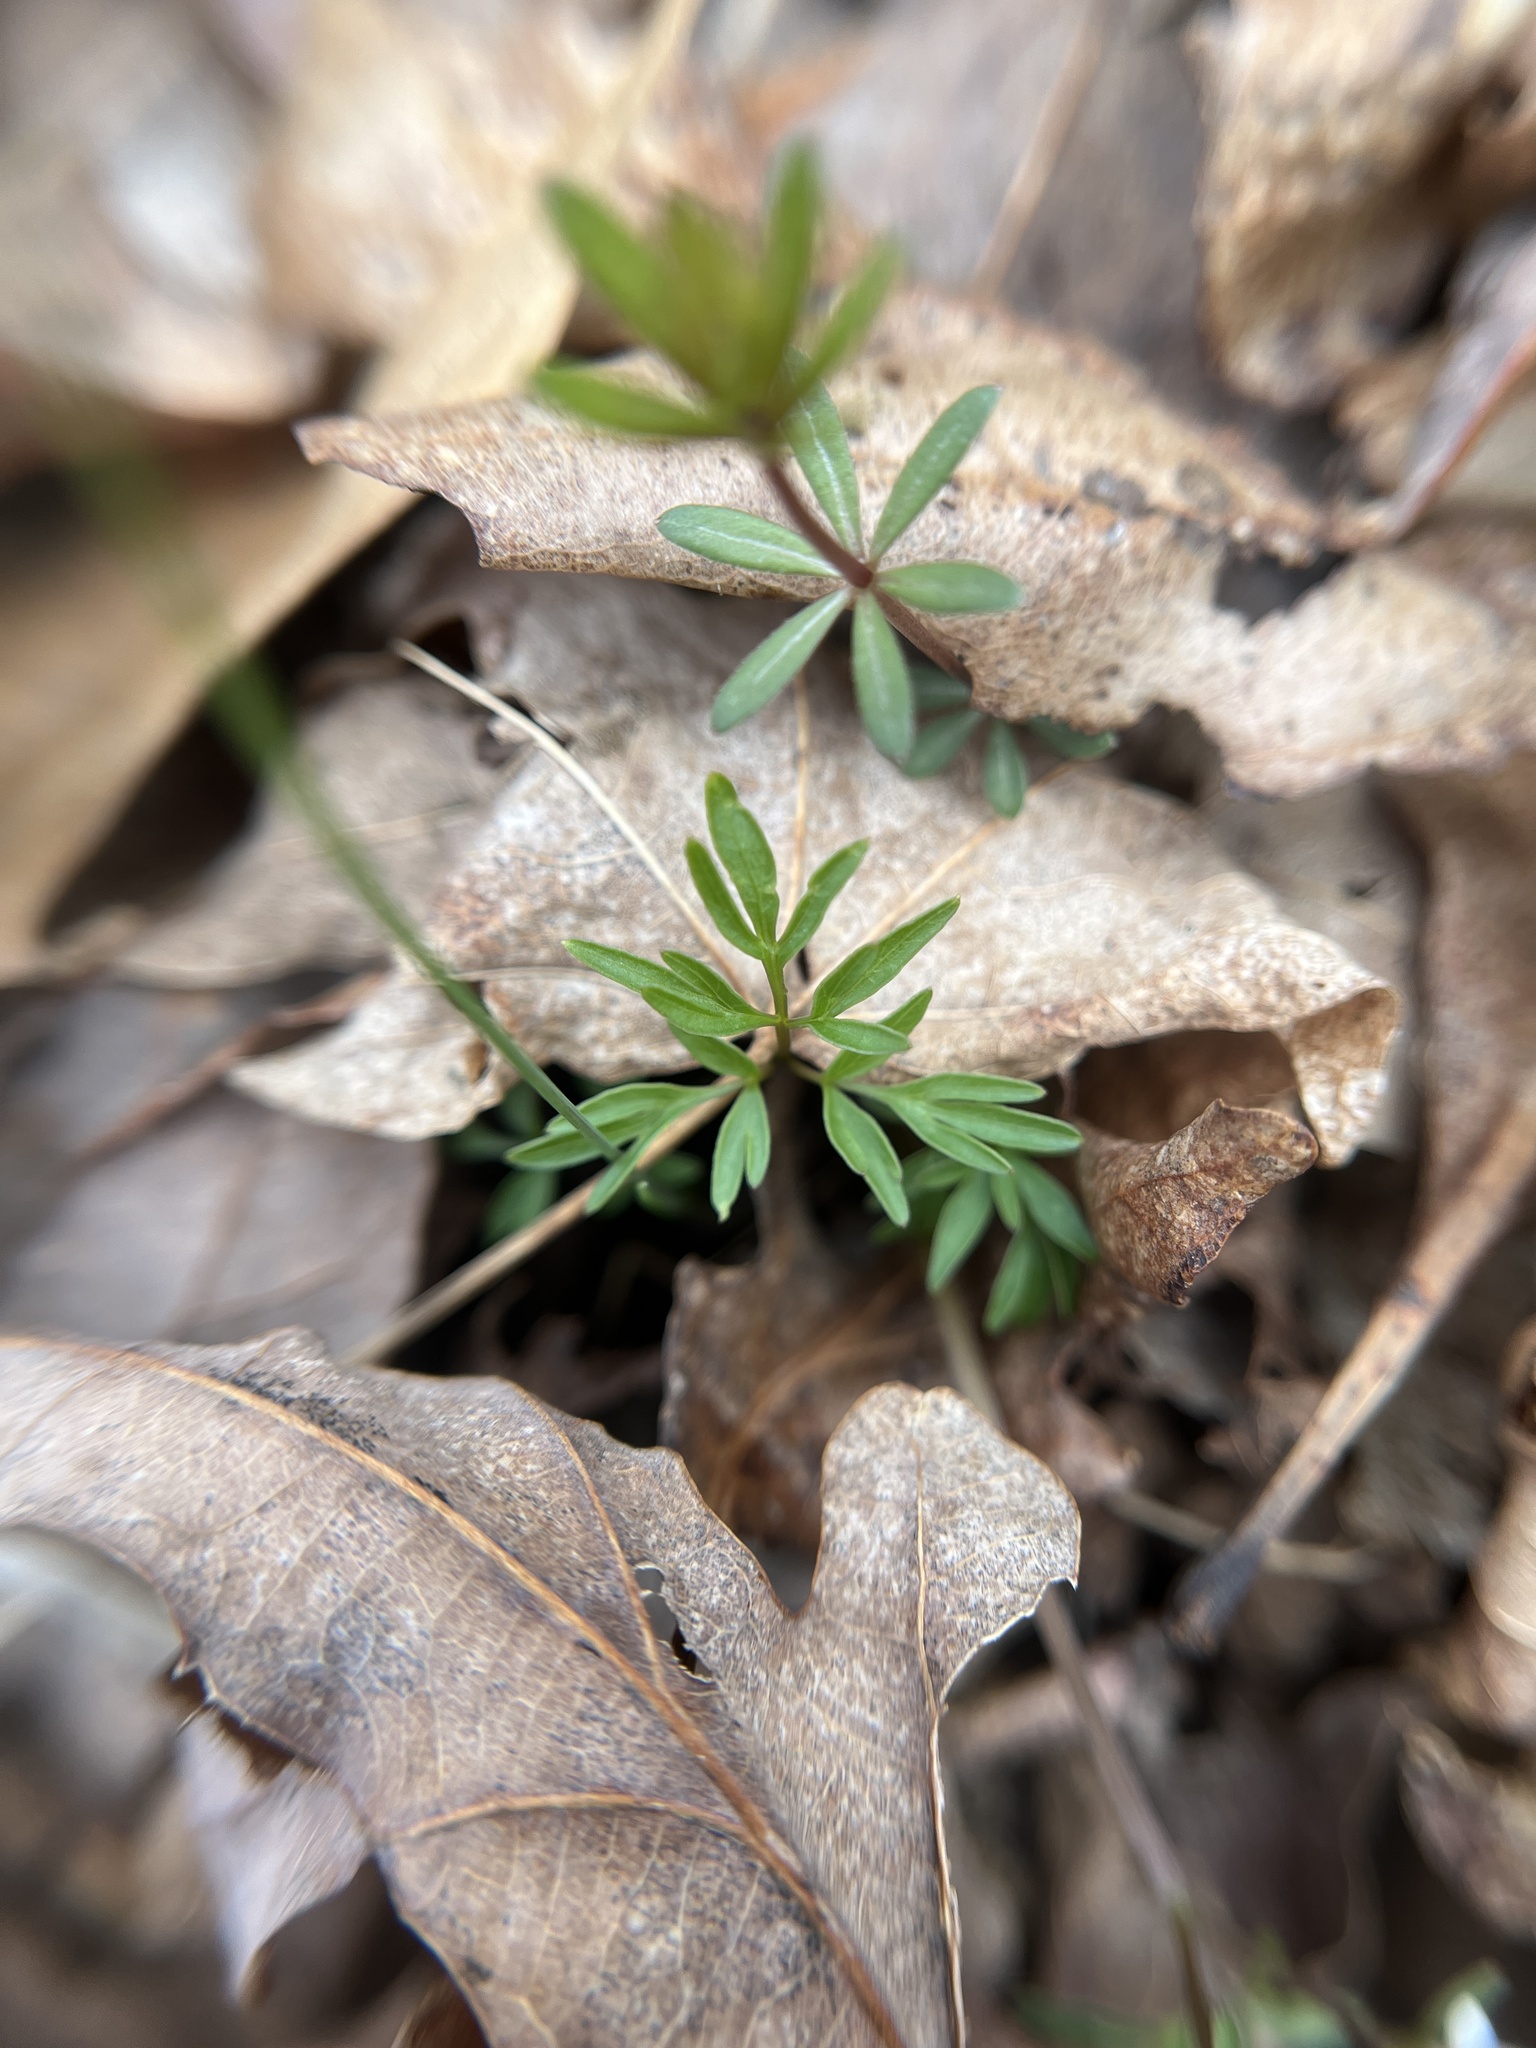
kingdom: Plantae
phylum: Tracheophyta
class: Magnoliopsida
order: Apiales
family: Apiaceae
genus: Erigenia
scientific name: Erigenia bulbosa
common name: Pepper-and-salt
